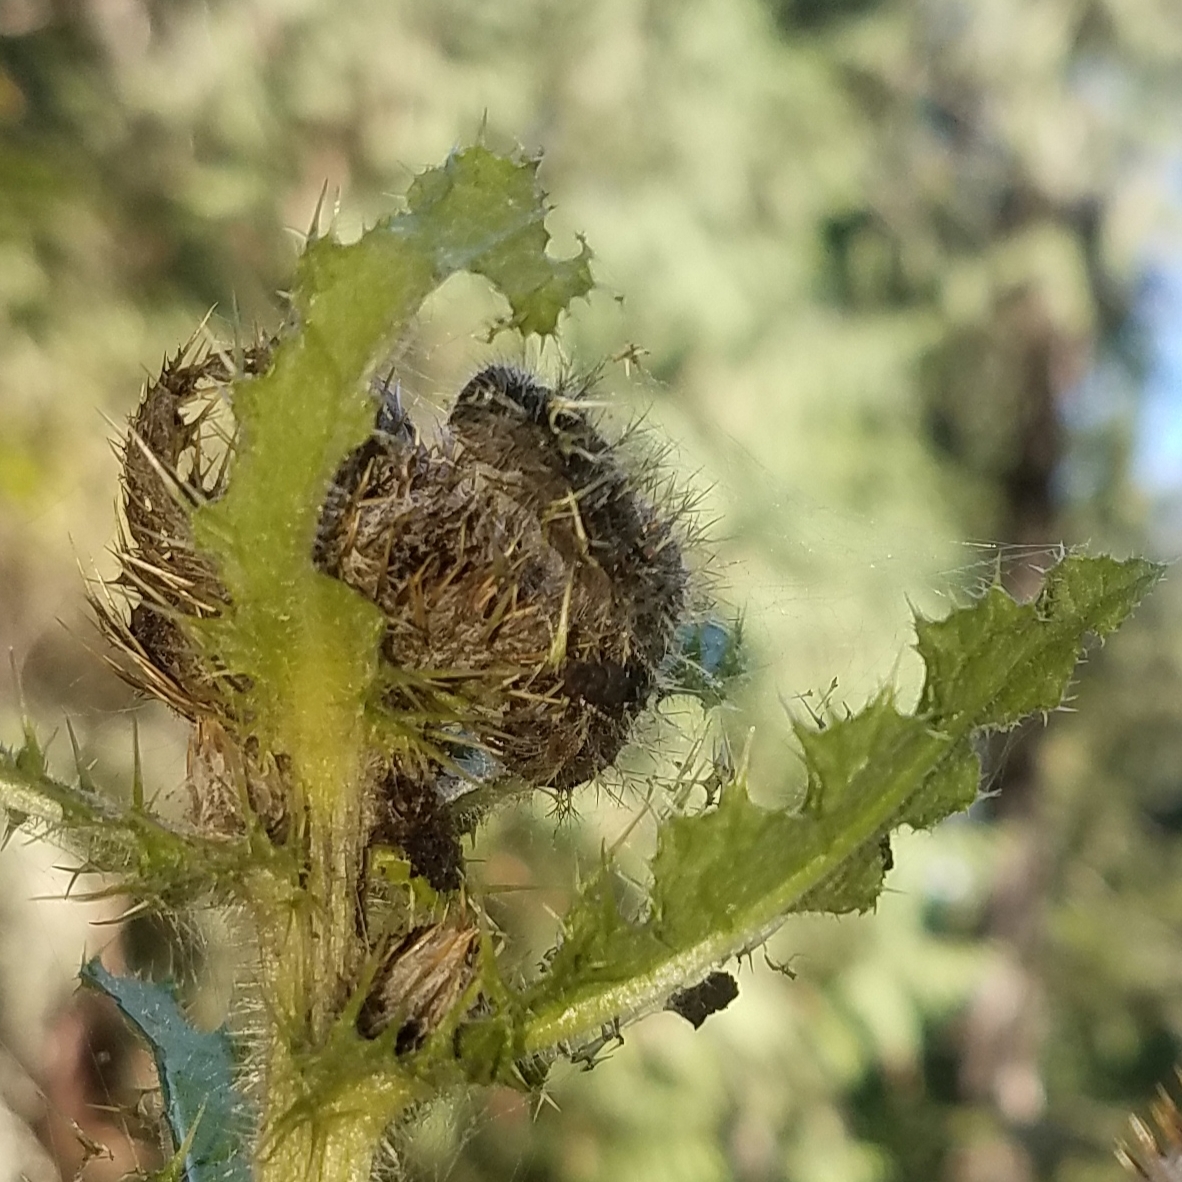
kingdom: Animalia
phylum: Arthropoda
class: Insecta
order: Lepidoptera
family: Nymphalidae
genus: Vanessa
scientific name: Vanessa cardui
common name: Painted lady
